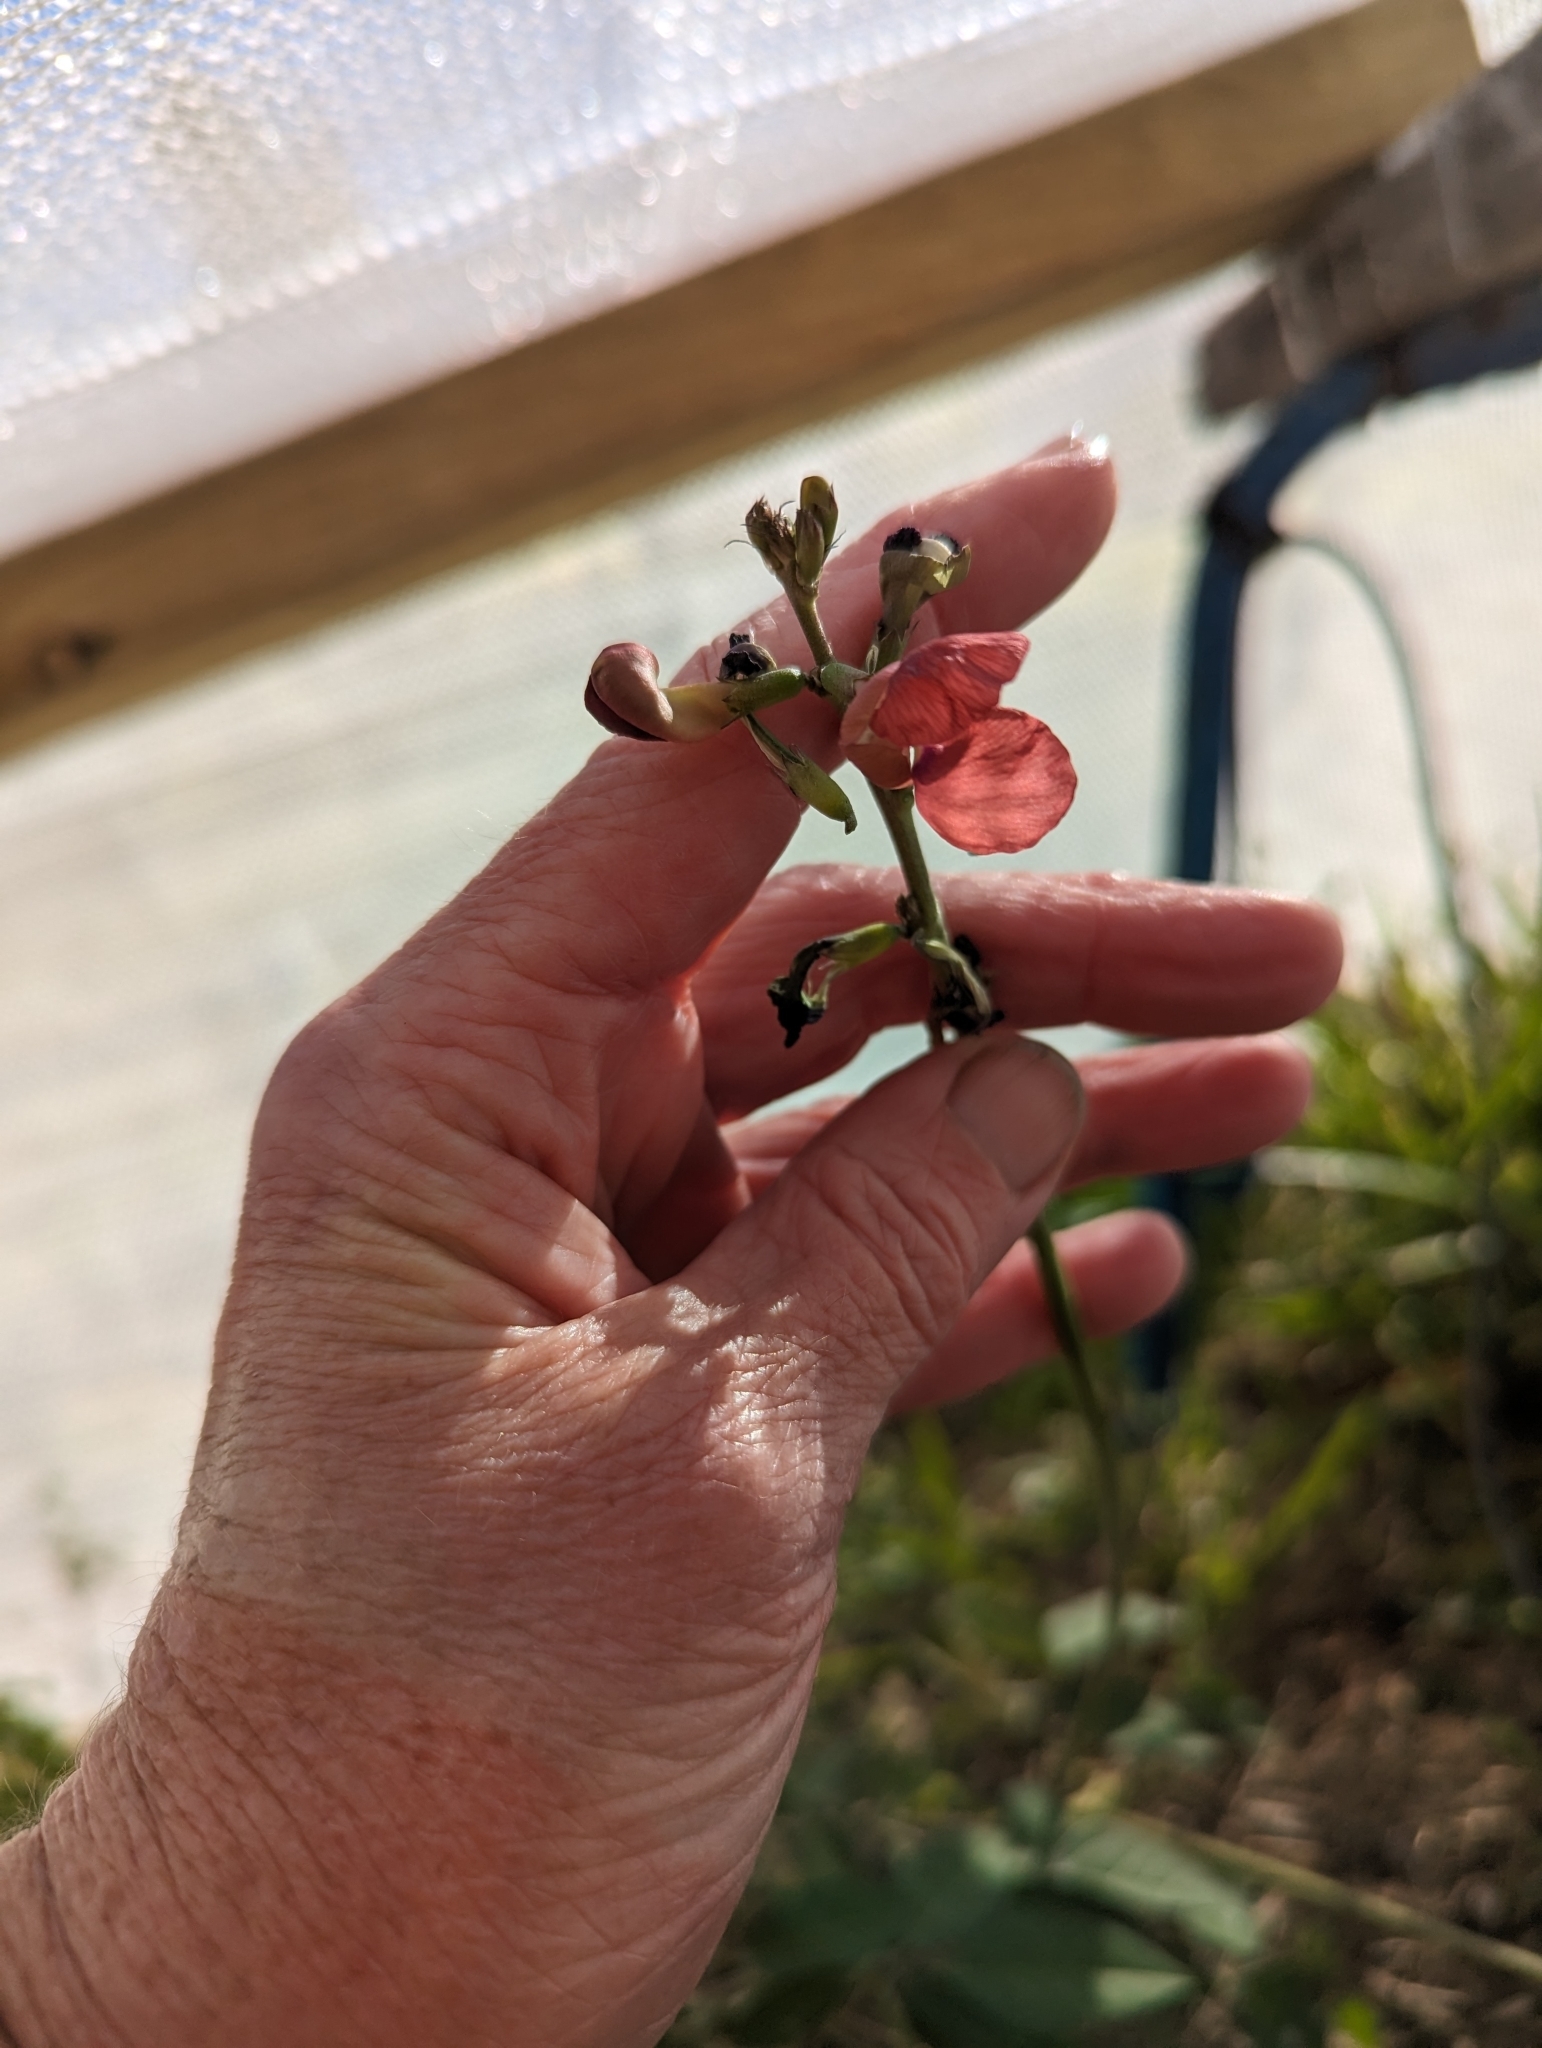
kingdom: Plantae
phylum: Tracheophyta
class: Magnoliopsida
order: Fabales
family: Fabaceae
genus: Macroptilium
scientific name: Macroptilium lathyroides
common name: Wild bushbean
